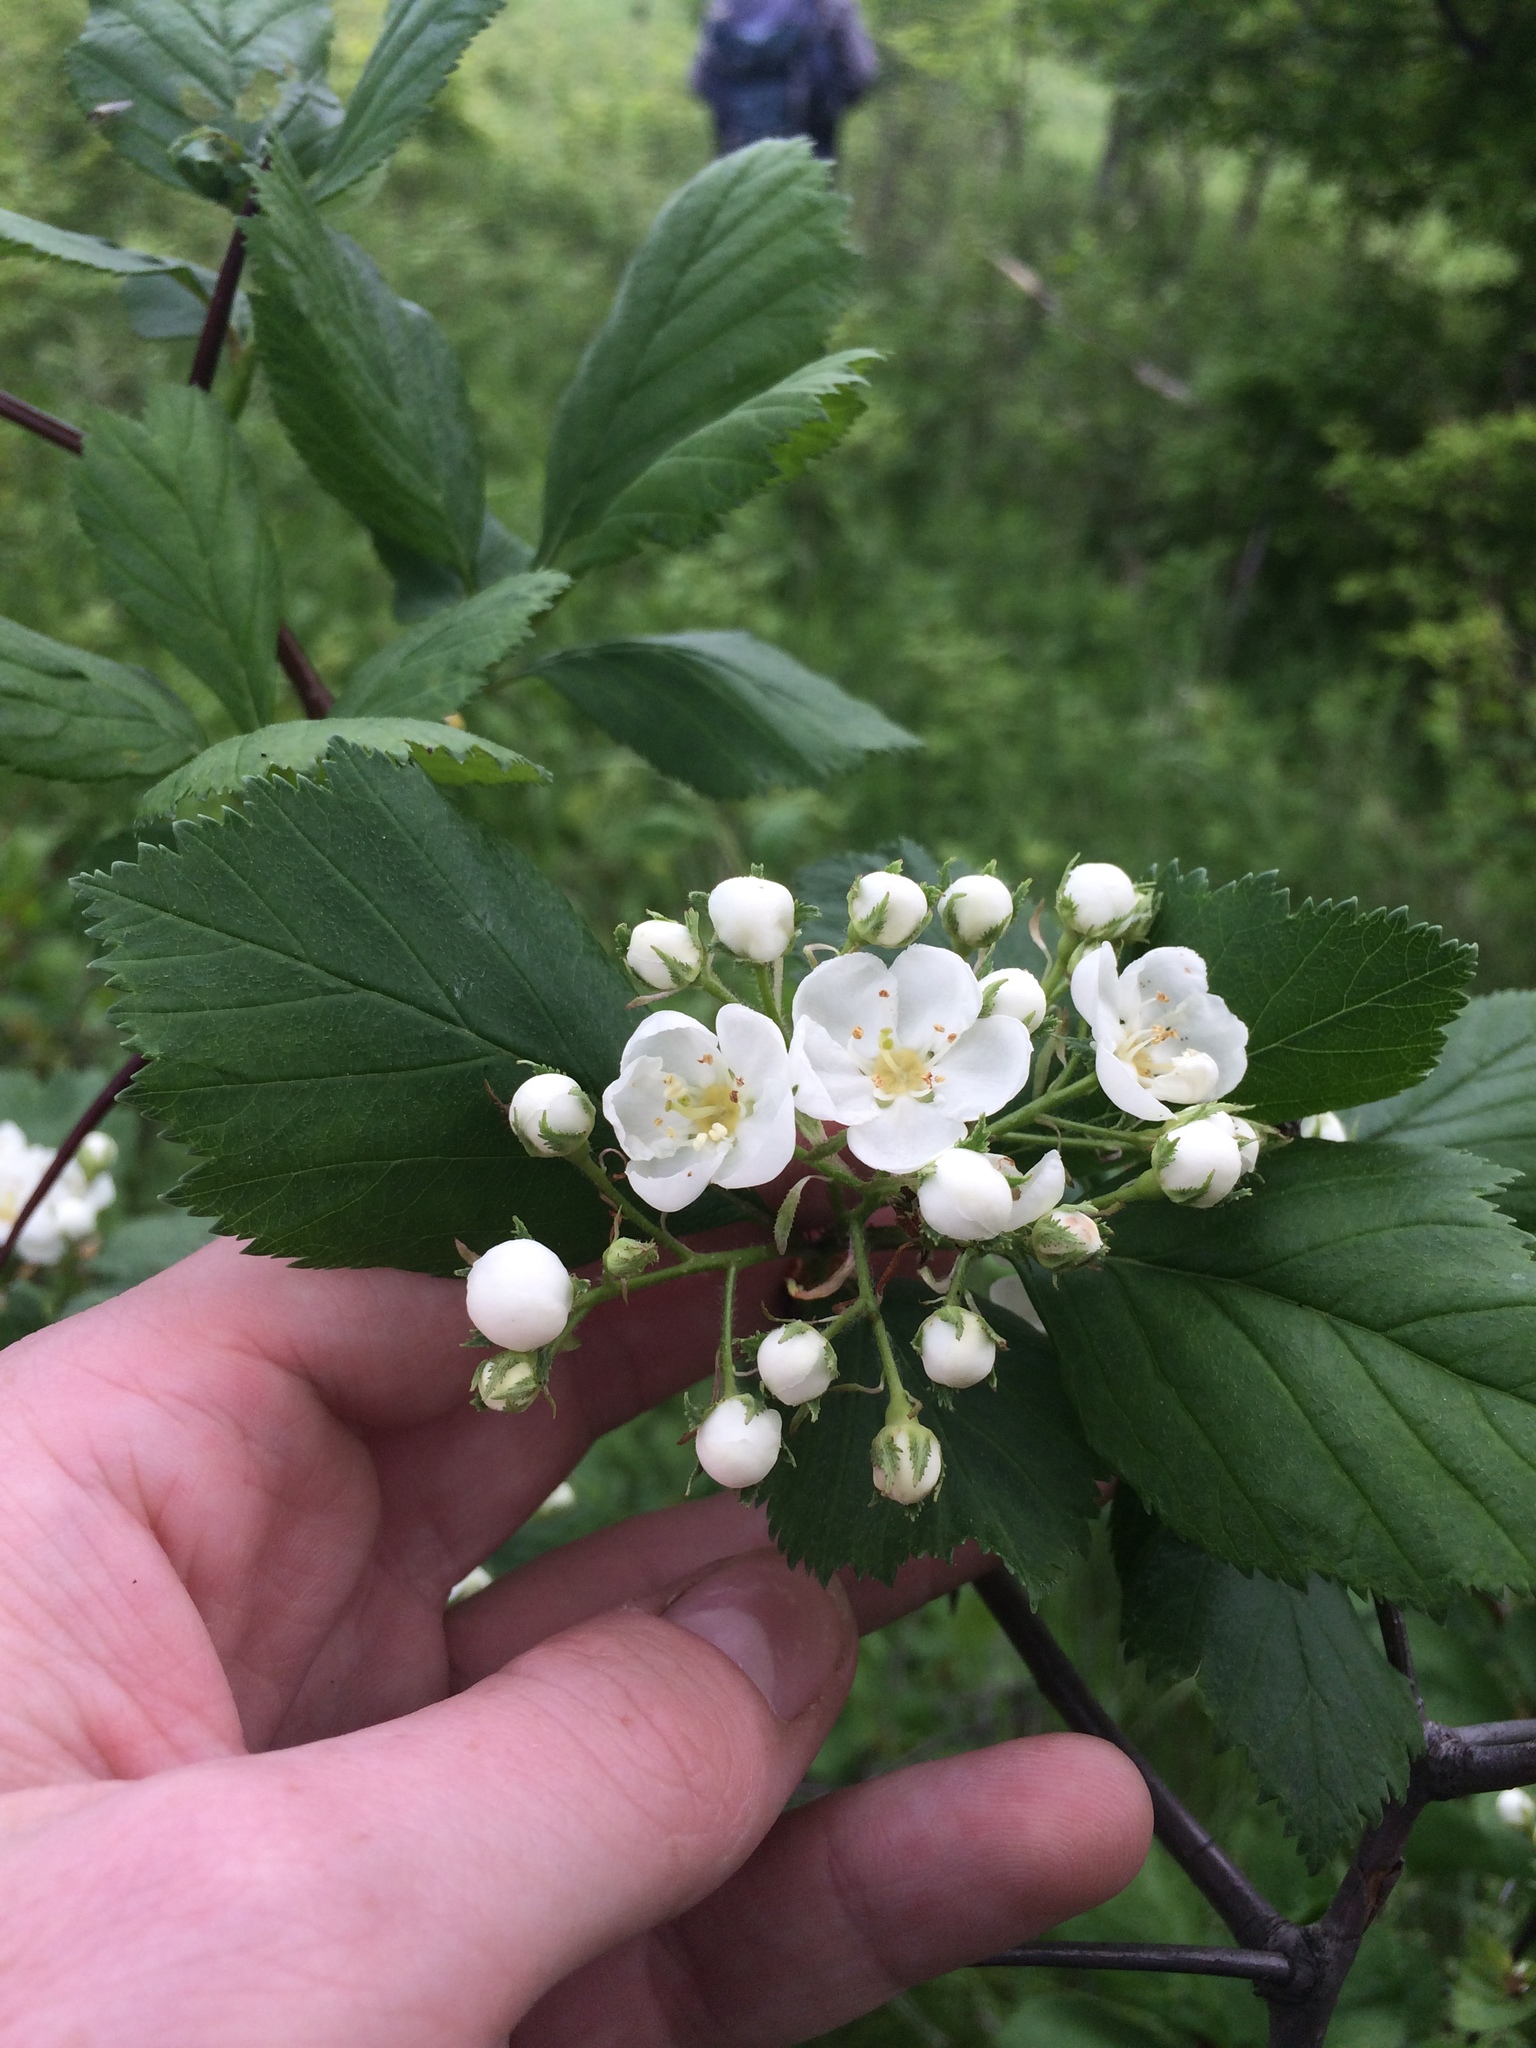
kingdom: Plantae
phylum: Tracheophyta
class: Magnoliopsida
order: Rosales
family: Rosaceae
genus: Crataegus
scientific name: Crataegus macracantha
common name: Large-thorn hawthorn
